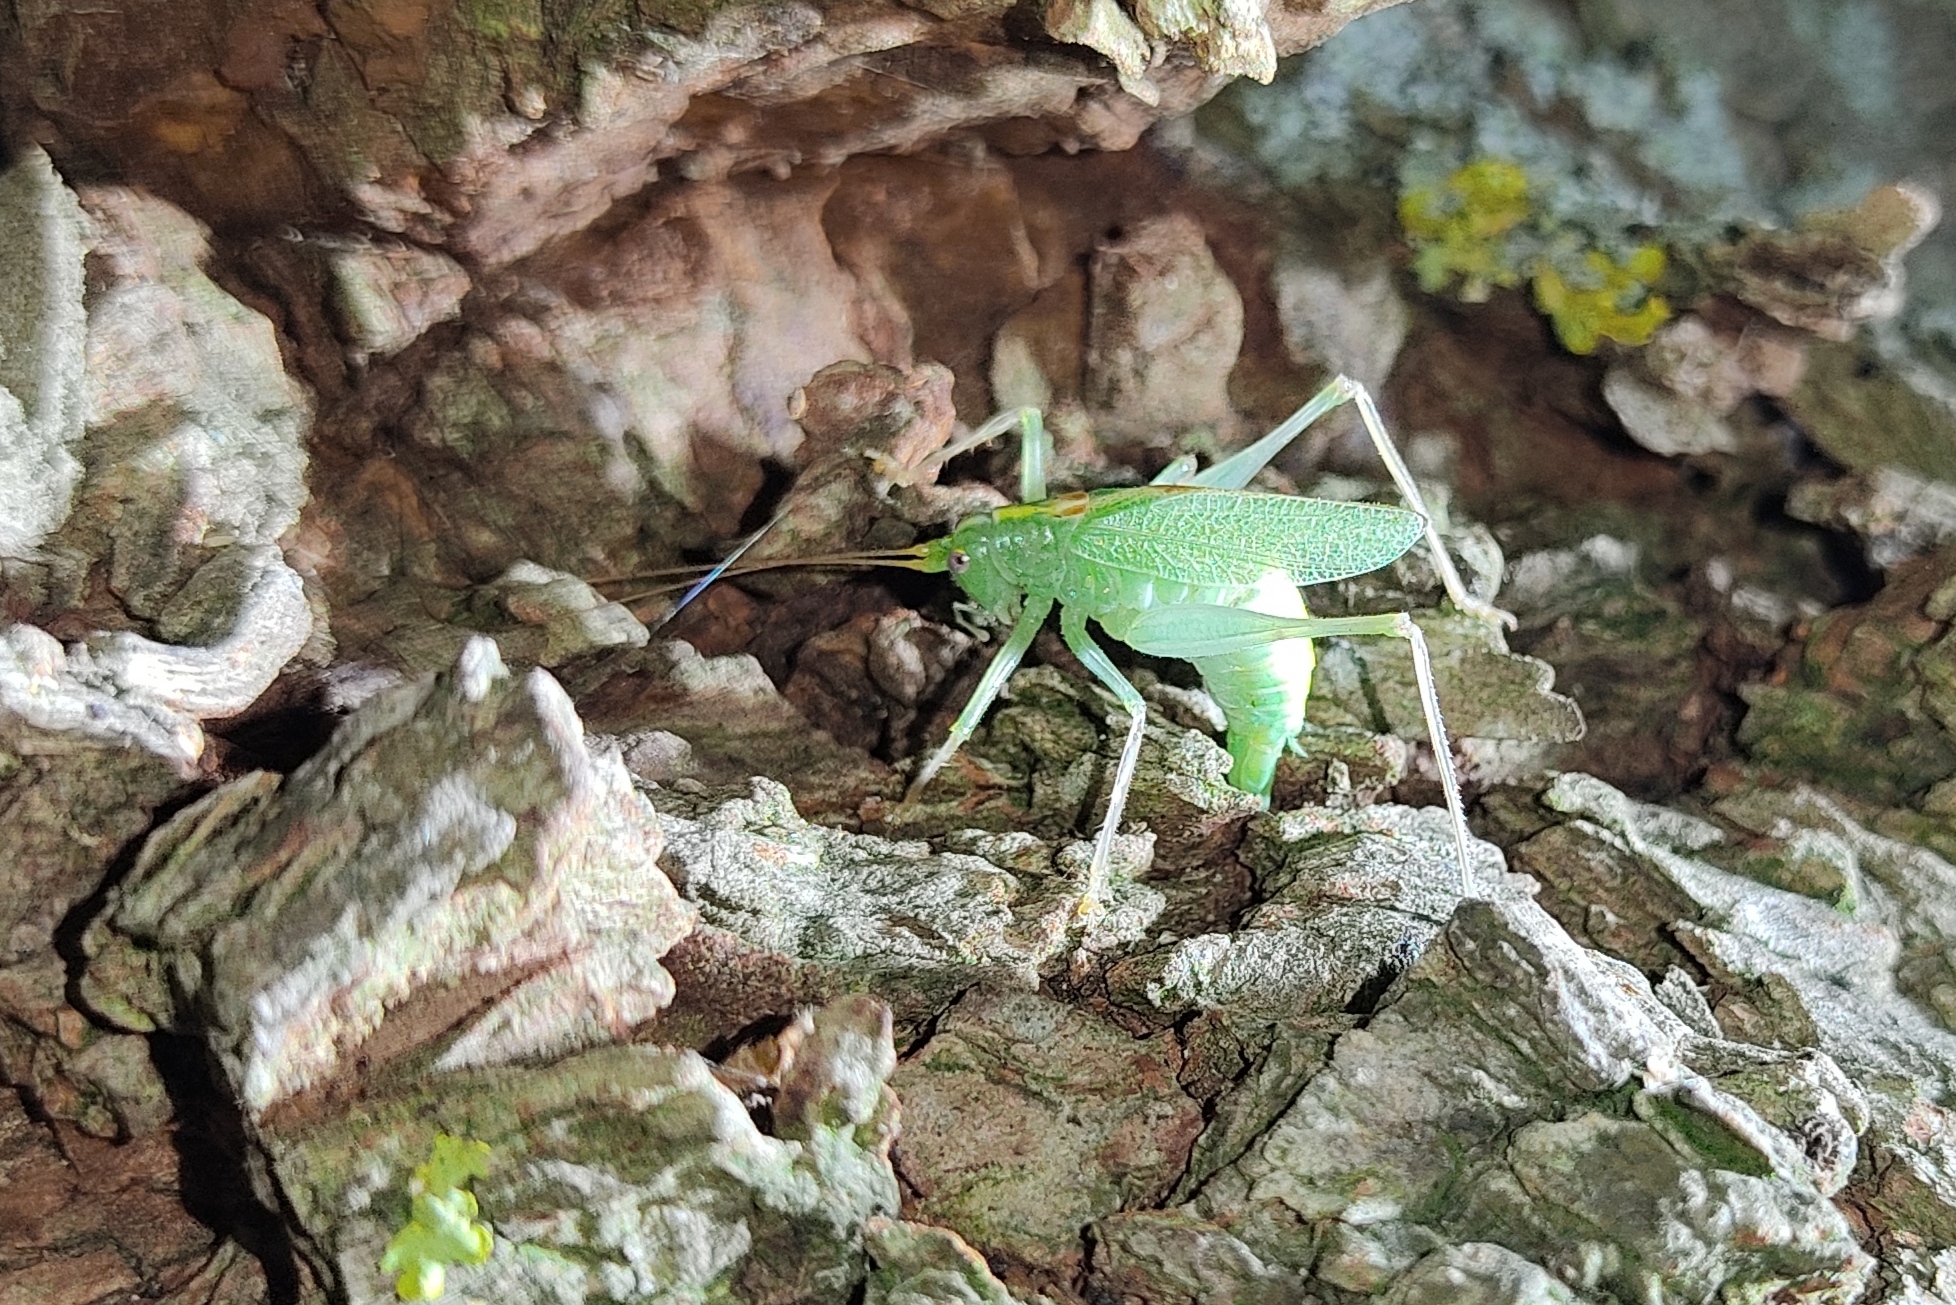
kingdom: Animalia
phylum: Arthropoda
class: Insecta
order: Orthoptera
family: Tettigoniidae
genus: Meconema
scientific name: Meconema thalassinum
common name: Oak bush-cricket
